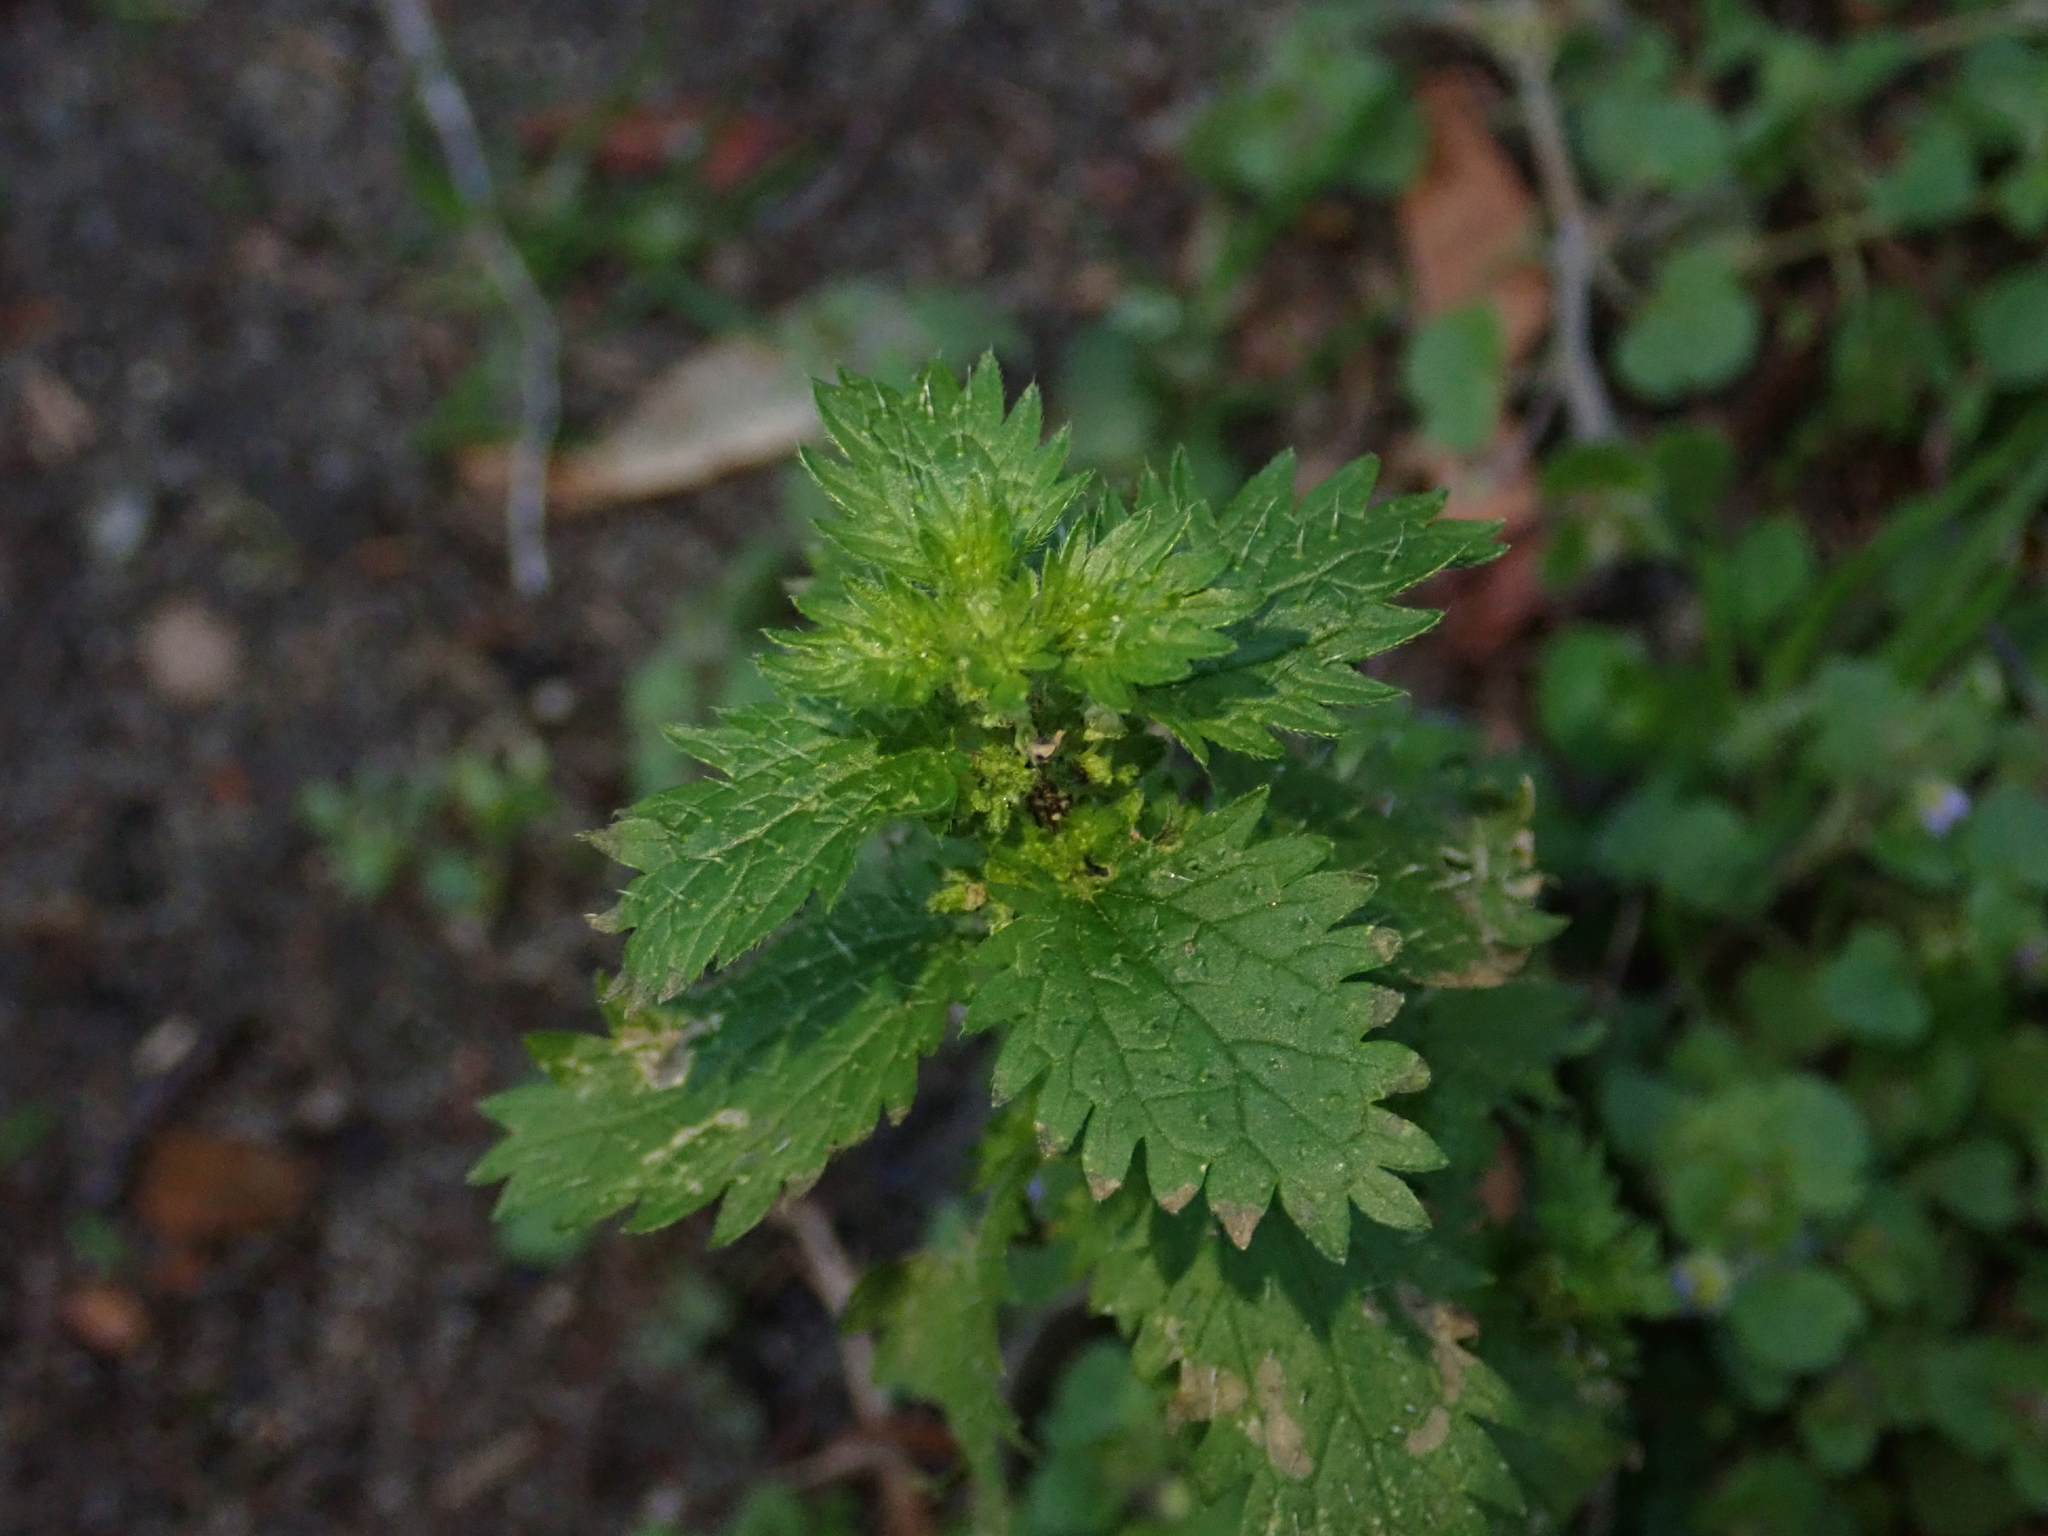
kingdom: Plantae
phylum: Tracheophyta
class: Magnoliopsida
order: Rosales
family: Urticaceae
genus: Urtica
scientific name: Urtica urens
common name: Dwarf nettle
